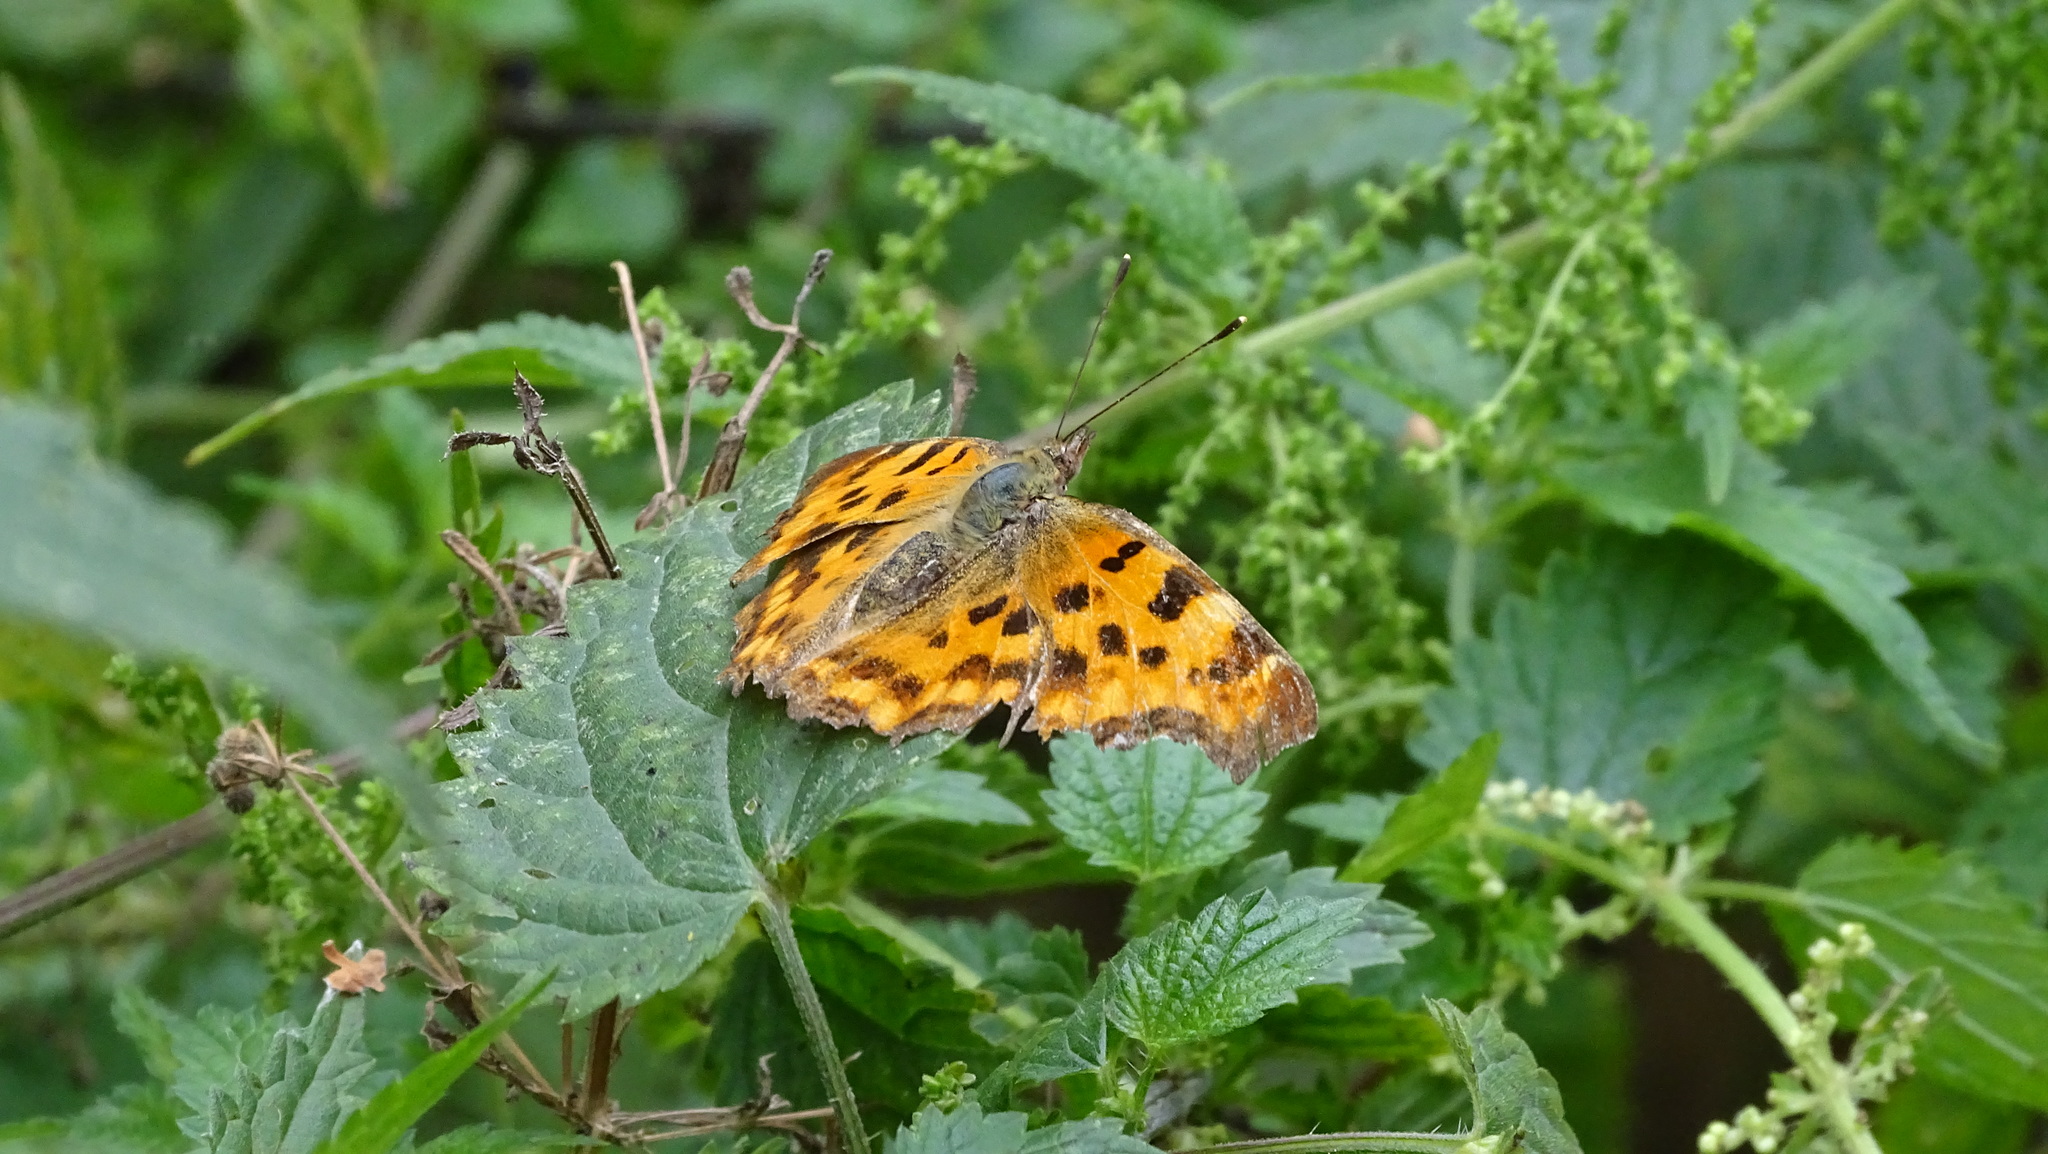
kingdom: Animalia
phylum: Arthropoda
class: Insecta
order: Lepidoptera
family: Nymphalidae
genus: Polygonia
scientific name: Polygonia c-album
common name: Comma
